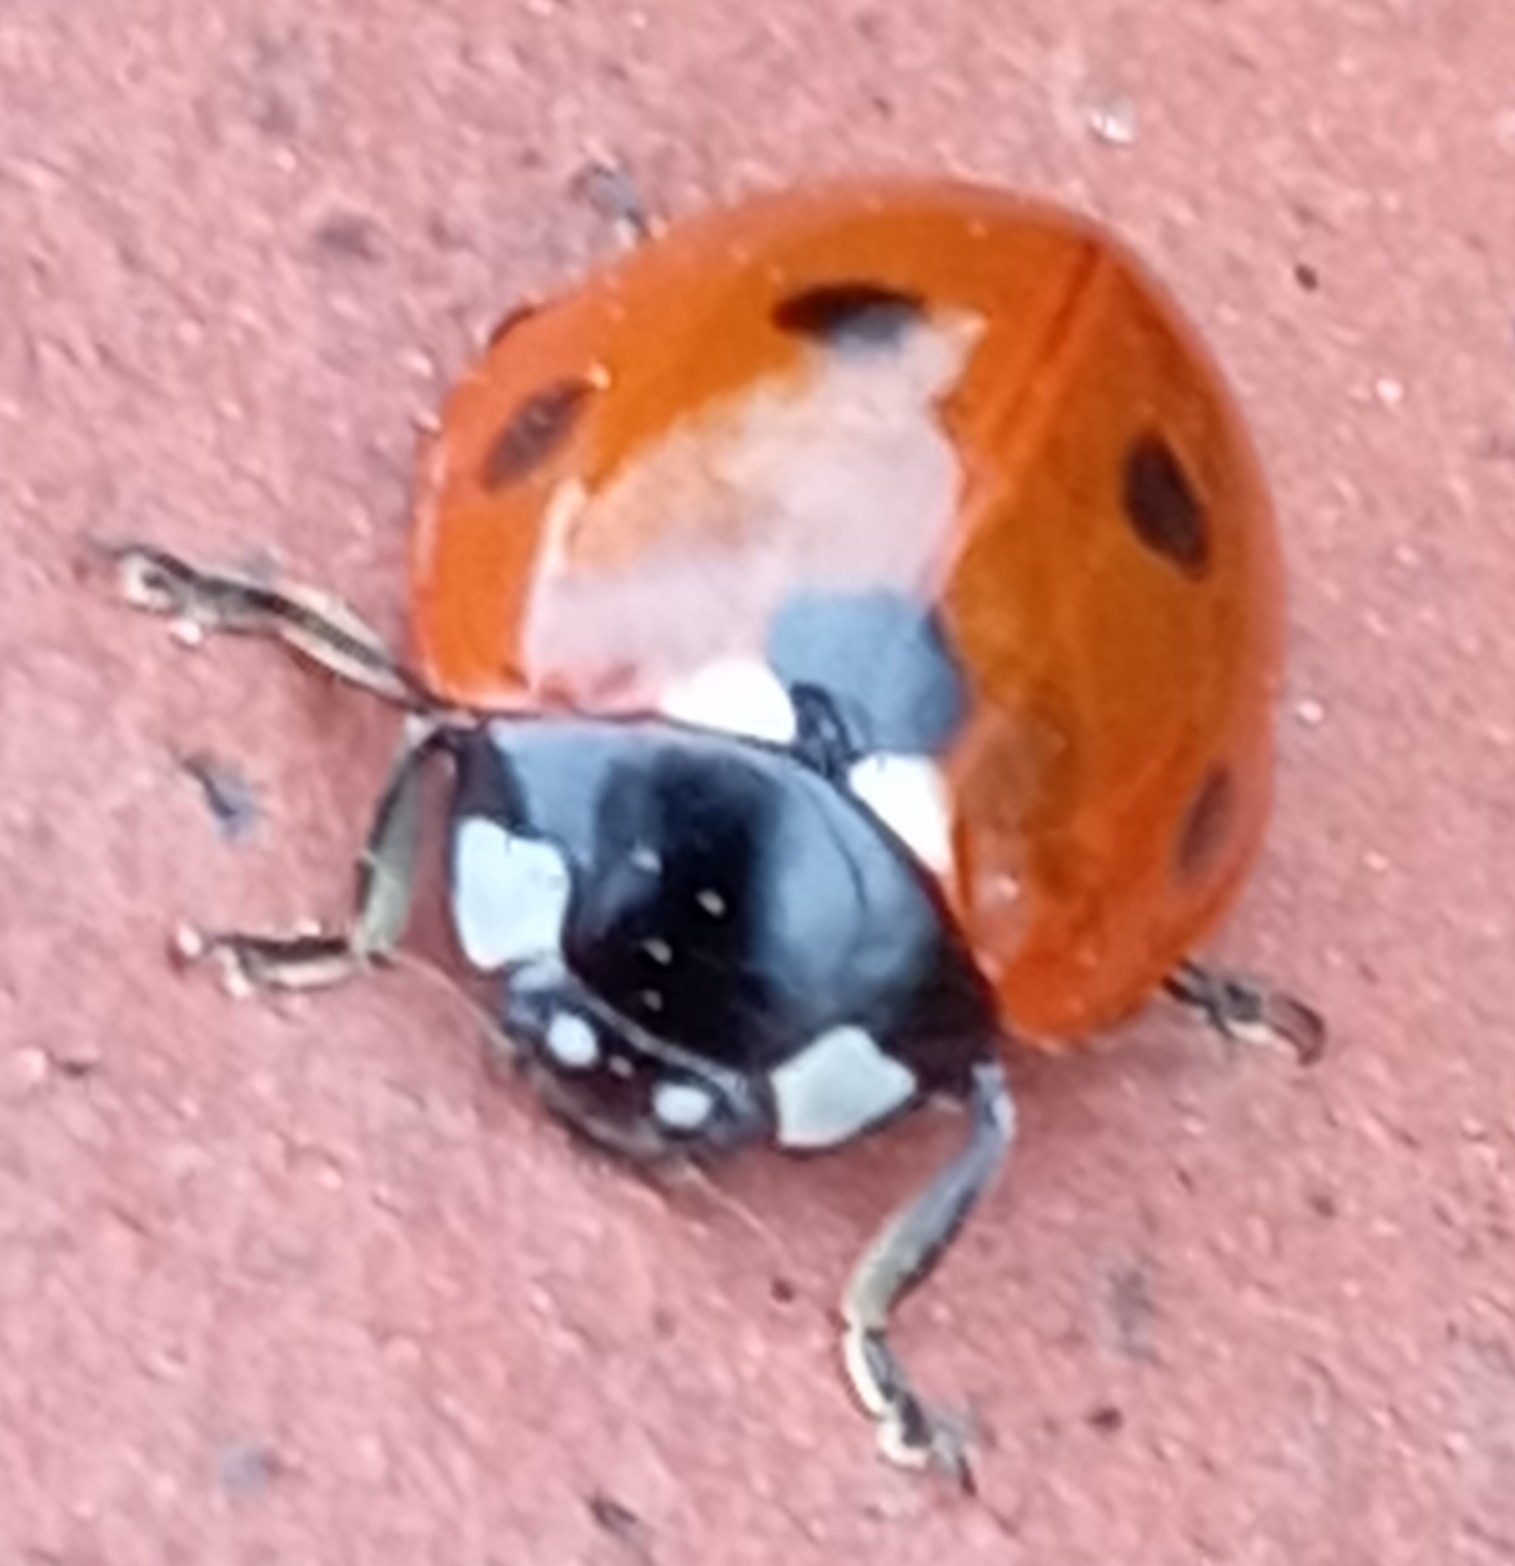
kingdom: Animalia
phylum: Arthropoda
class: Insecta
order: Coleoptera
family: Coccinellidae
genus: Coccinella
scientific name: Coccinella septempunctata
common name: Sevenspotted lady beetle
